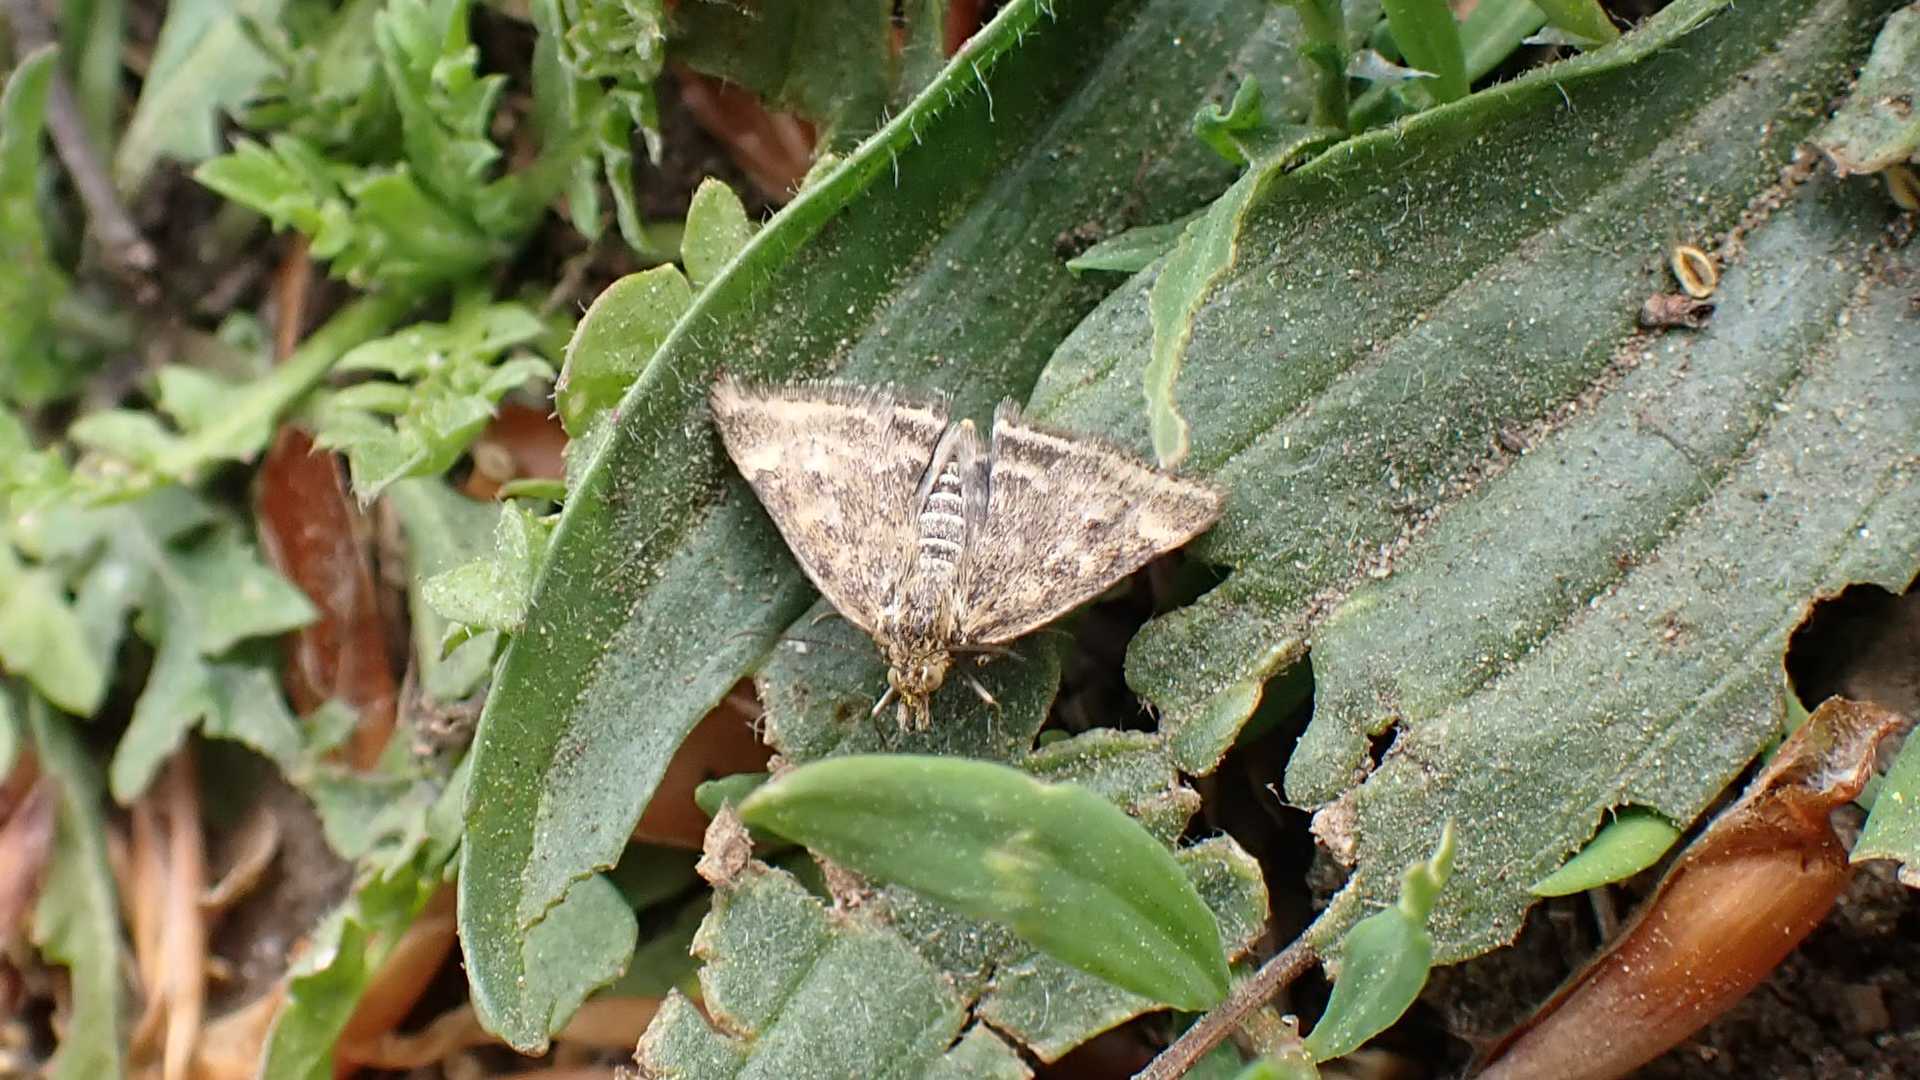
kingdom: Animalia
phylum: Arthropoda
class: Insecta
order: Lepidoptera
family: Crambidae
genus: Pyrausta
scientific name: Pyrausta despicata
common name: Straw-barred pearl
